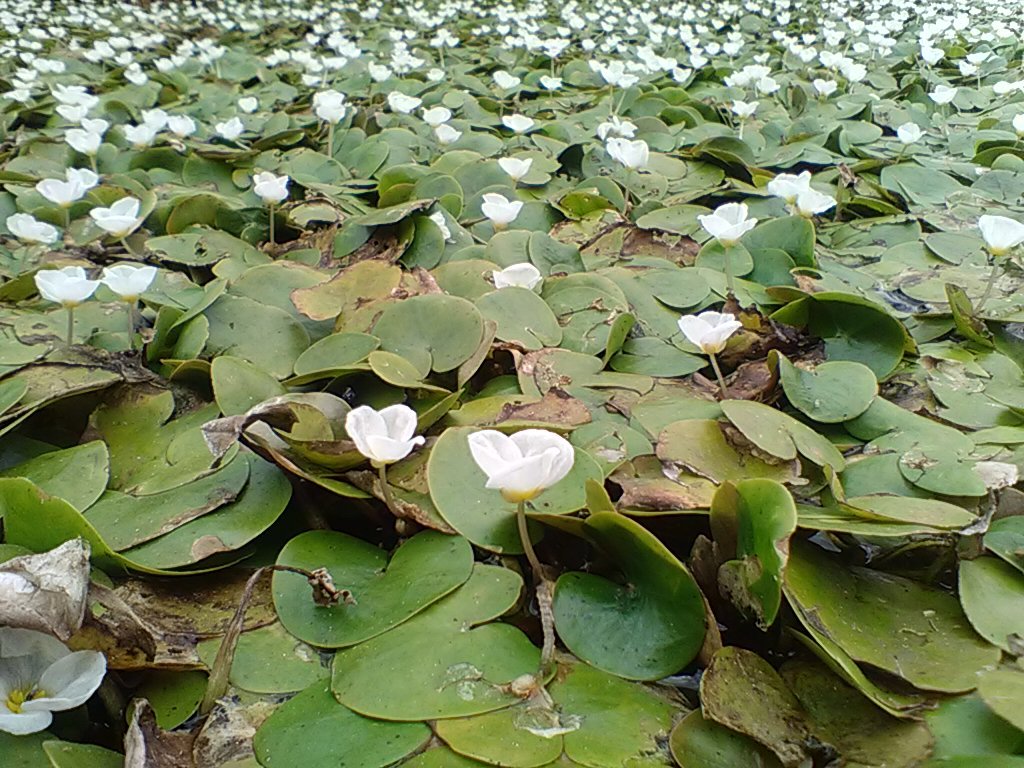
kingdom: Plantae
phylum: Tracheophyta
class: Liliopsida
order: Alismatales
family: Hydrocharitaceae
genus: Hydrocharis
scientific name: Hydrocharis morsus-ranae
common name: Frogbit
